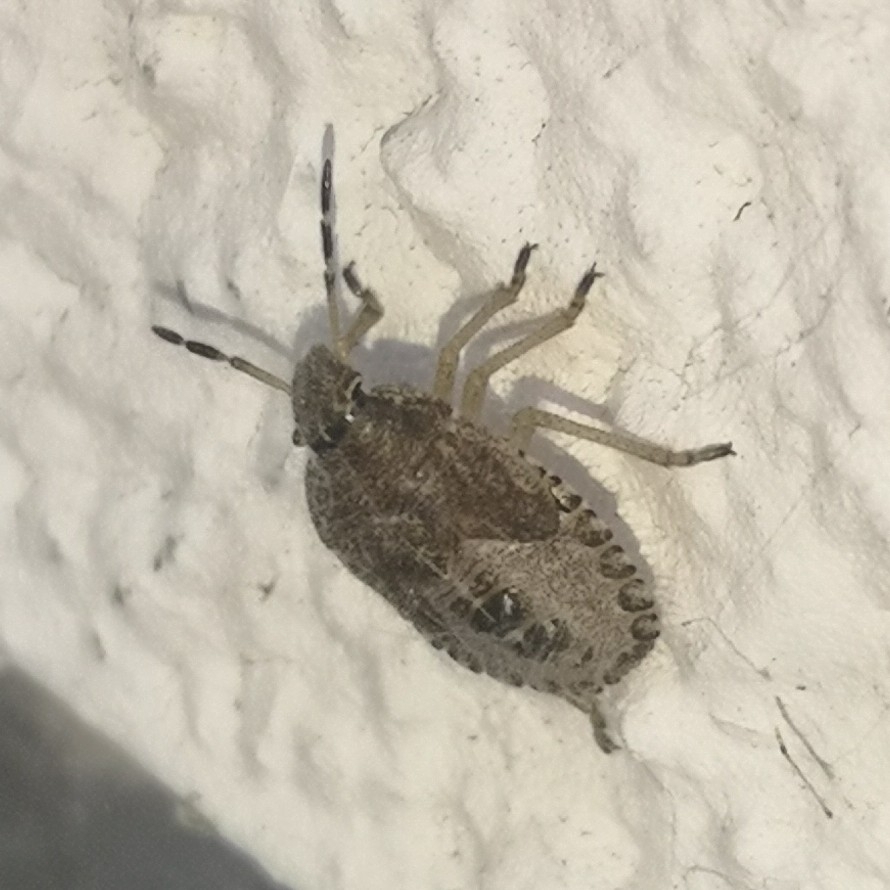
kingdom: Animalia
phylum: Arthropoda
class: Insecta
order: Hemiptera
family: Pentatomidae
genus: Dolycoris
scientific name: Dolycoris baccarum
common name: Sloe bug
